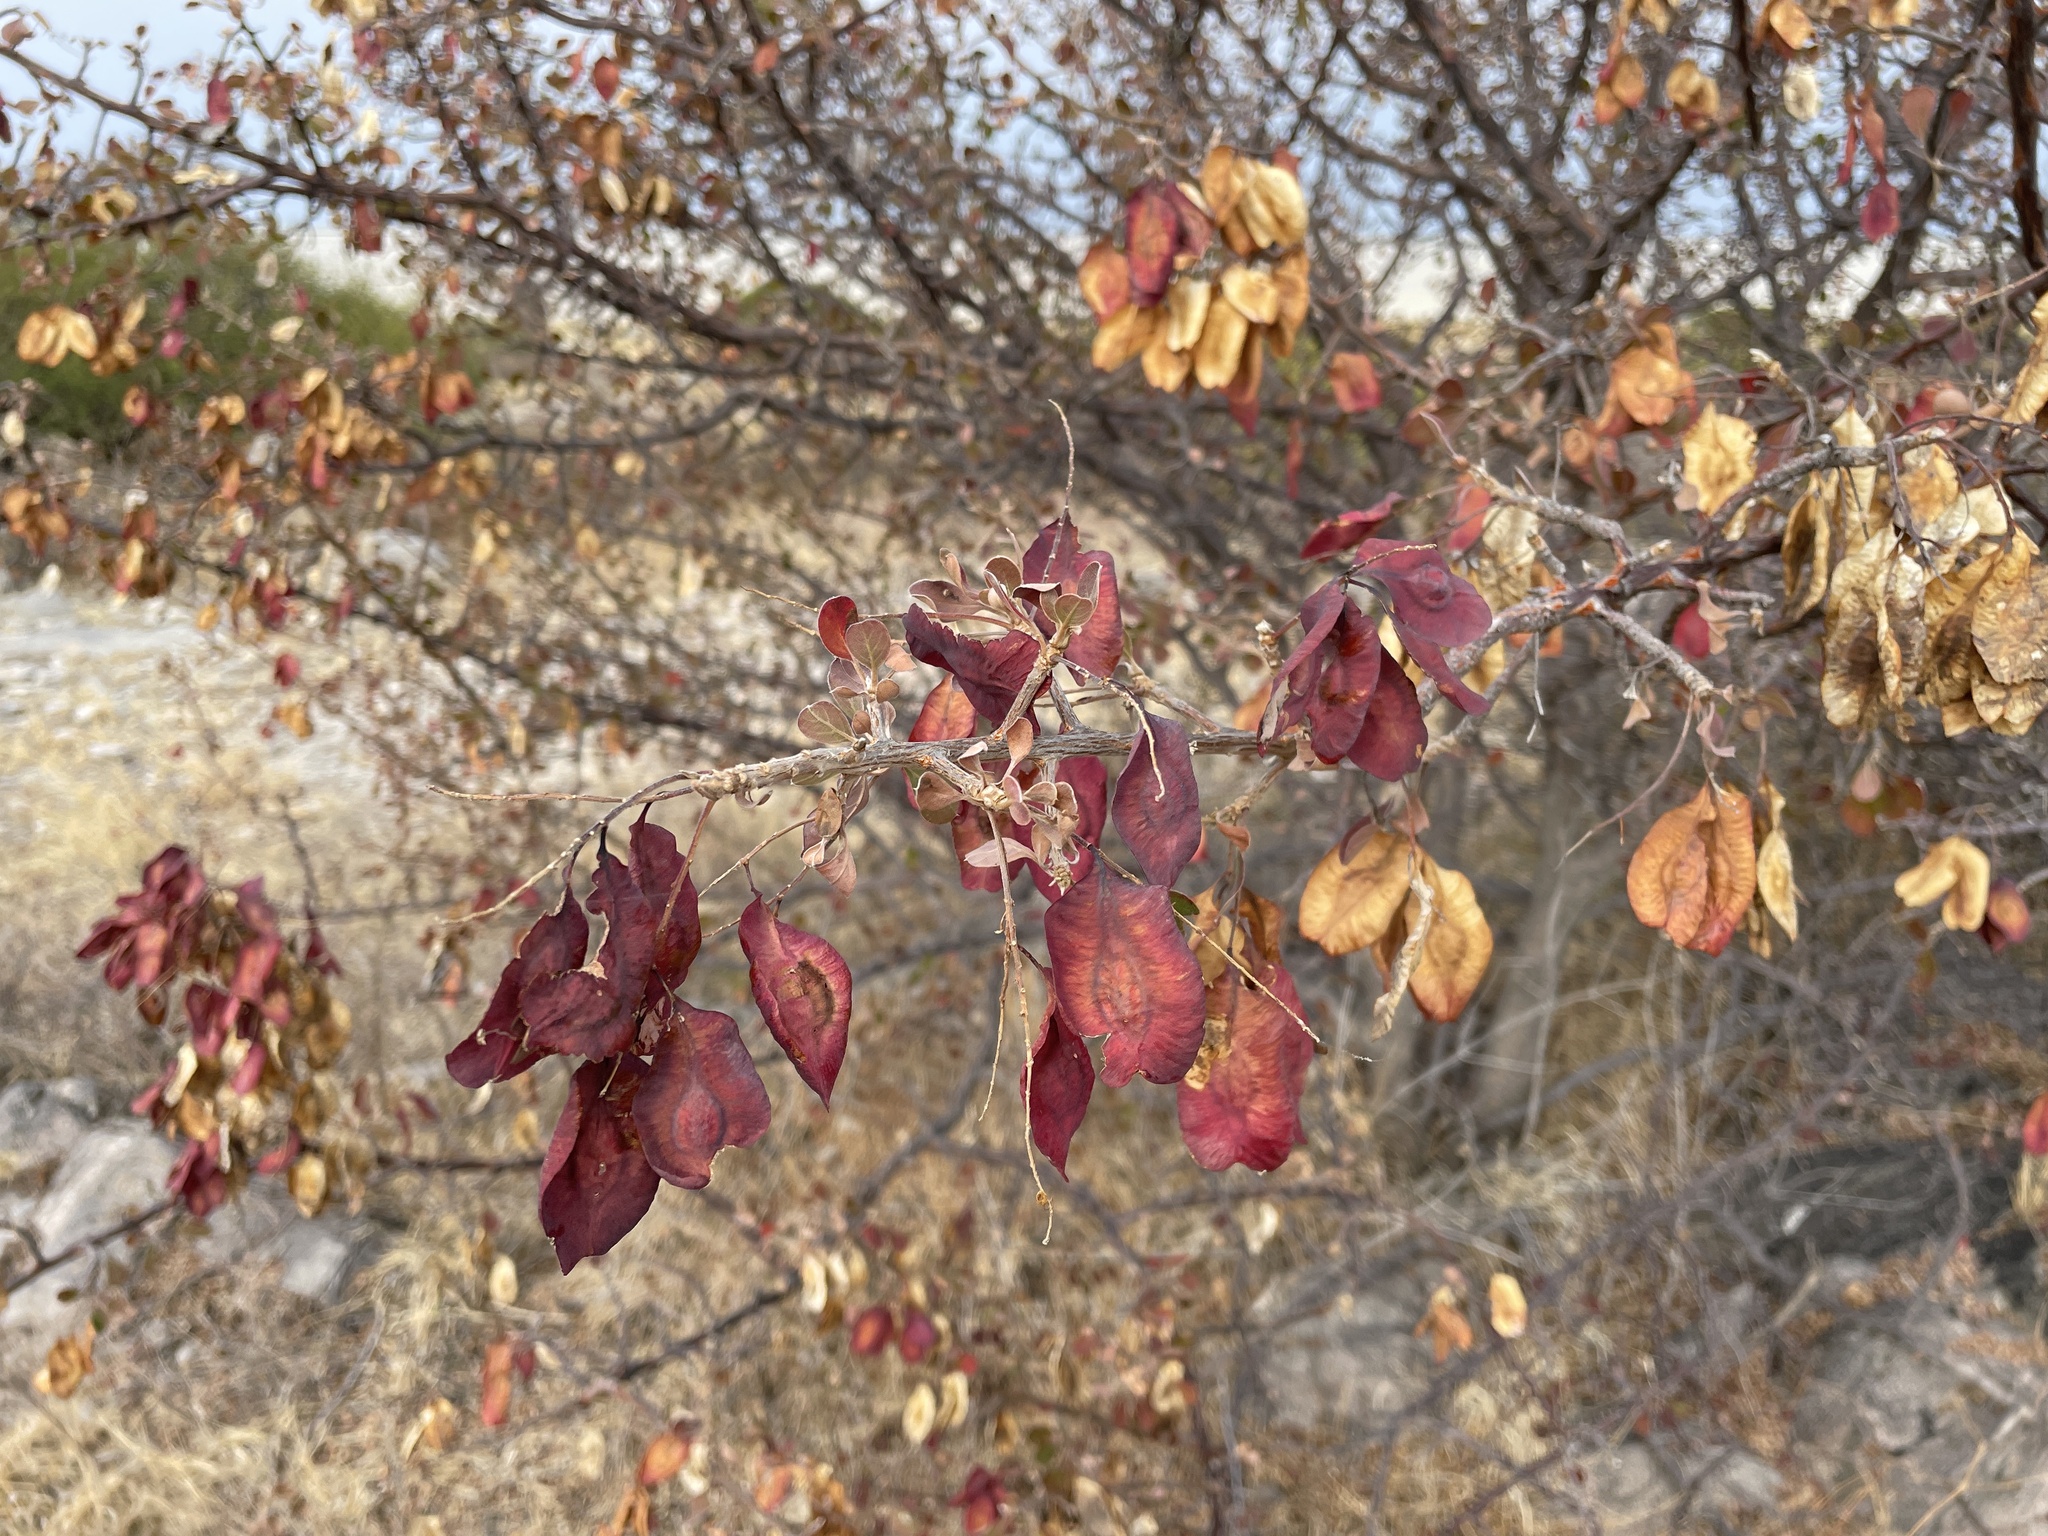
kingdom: Plantae
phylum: Tracheophyta
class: Magnoliopsida
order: Myrtales
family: Combretaceae
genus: Terminalia
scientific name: Terminalia prunioides
